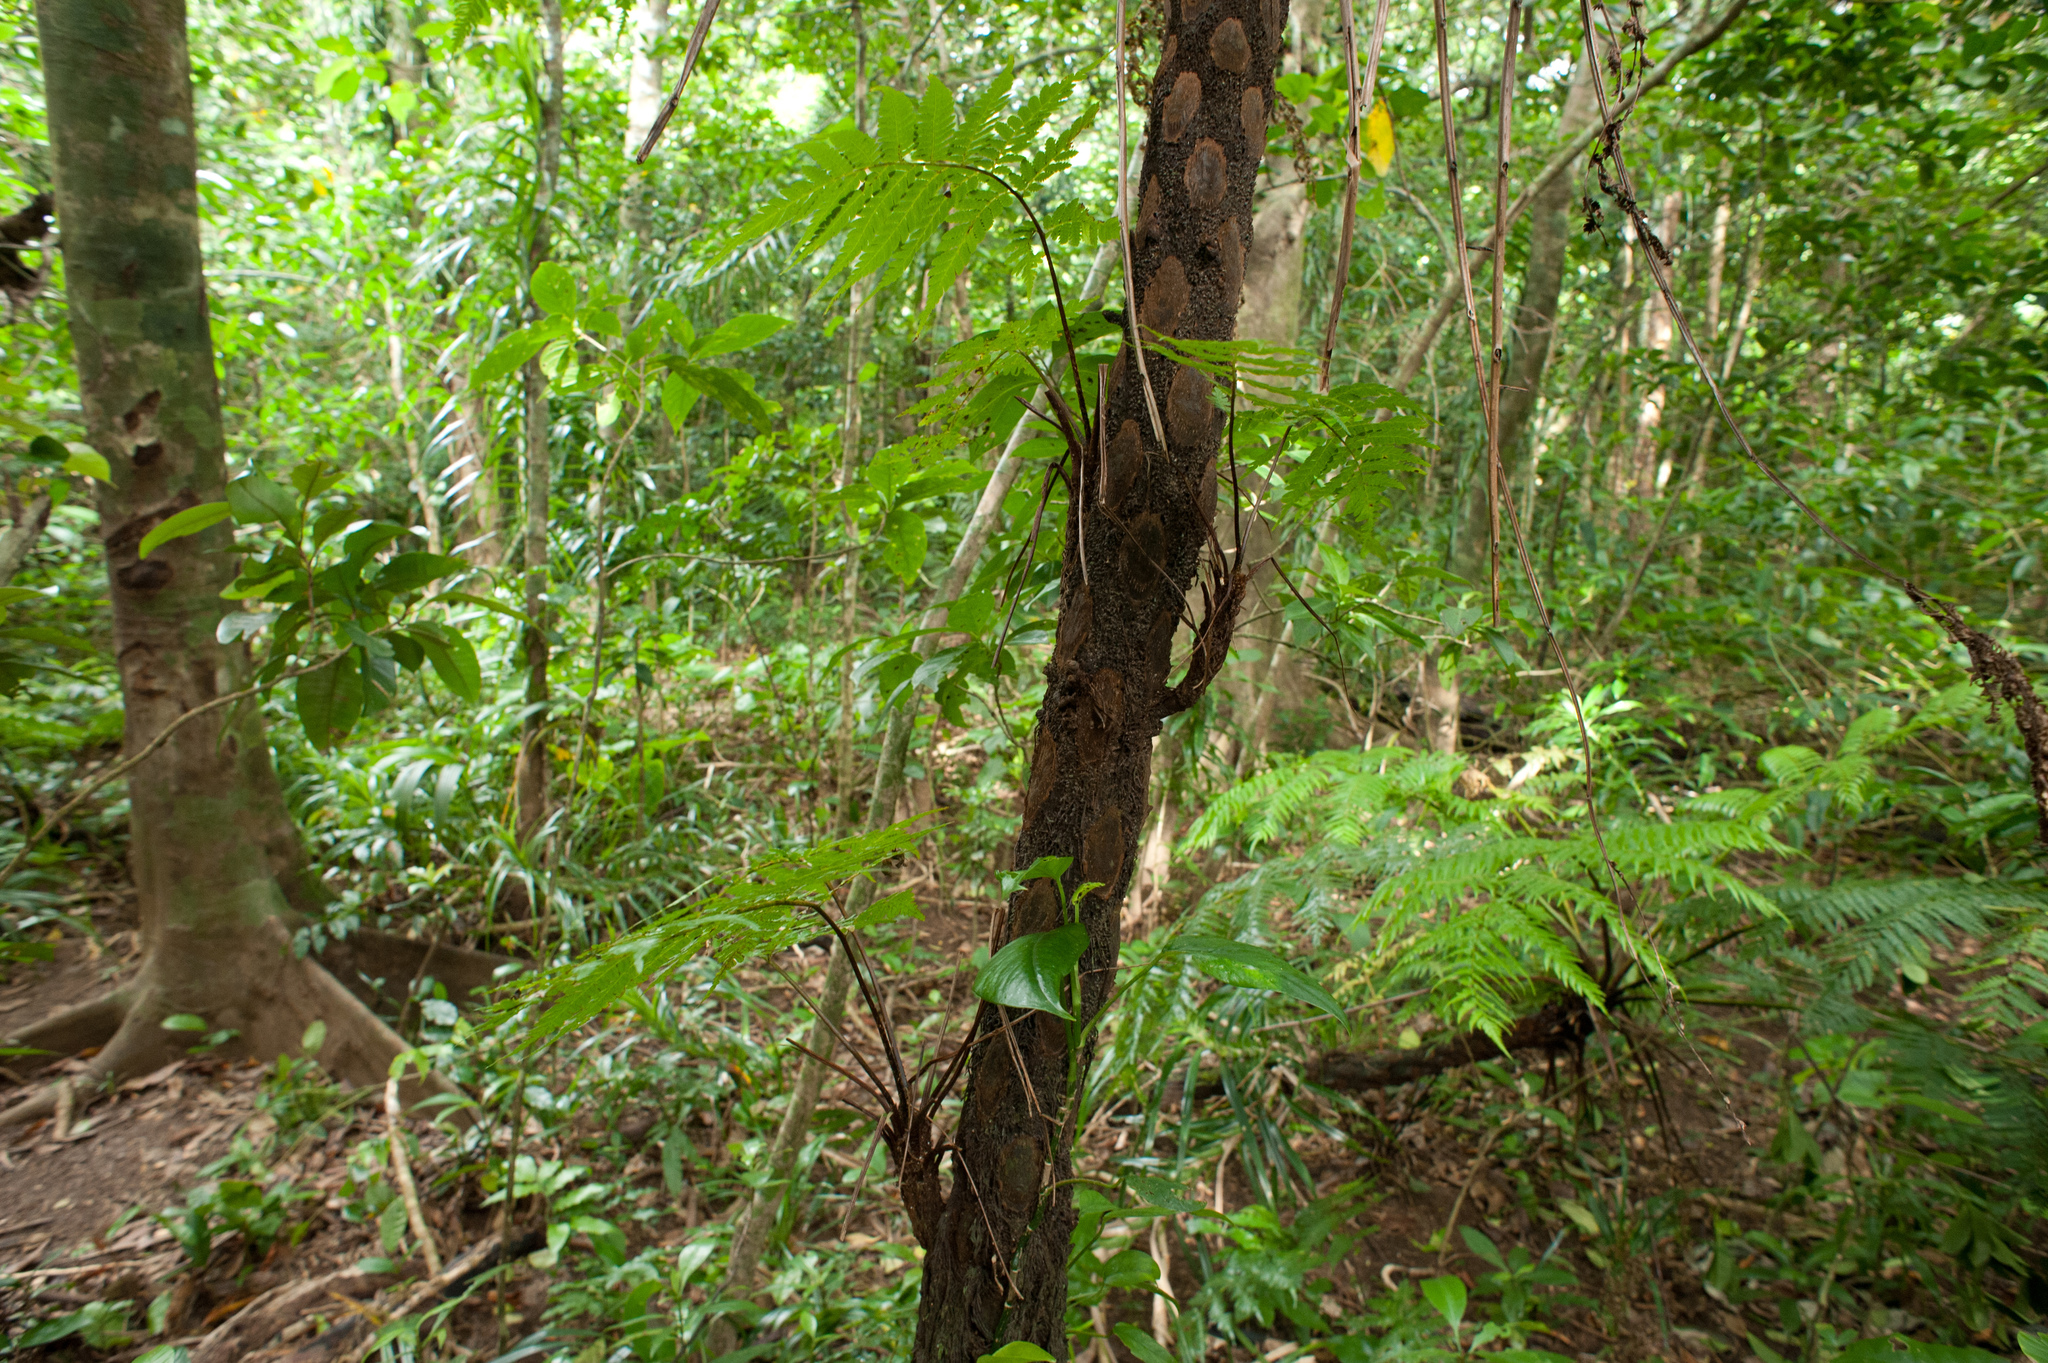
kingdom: Plantae
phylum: Tracheophyta
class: Polypodiopsida
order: Cyatheales
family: Cyatheaceae
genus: Alsophila
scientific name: Alsophila fenicis
